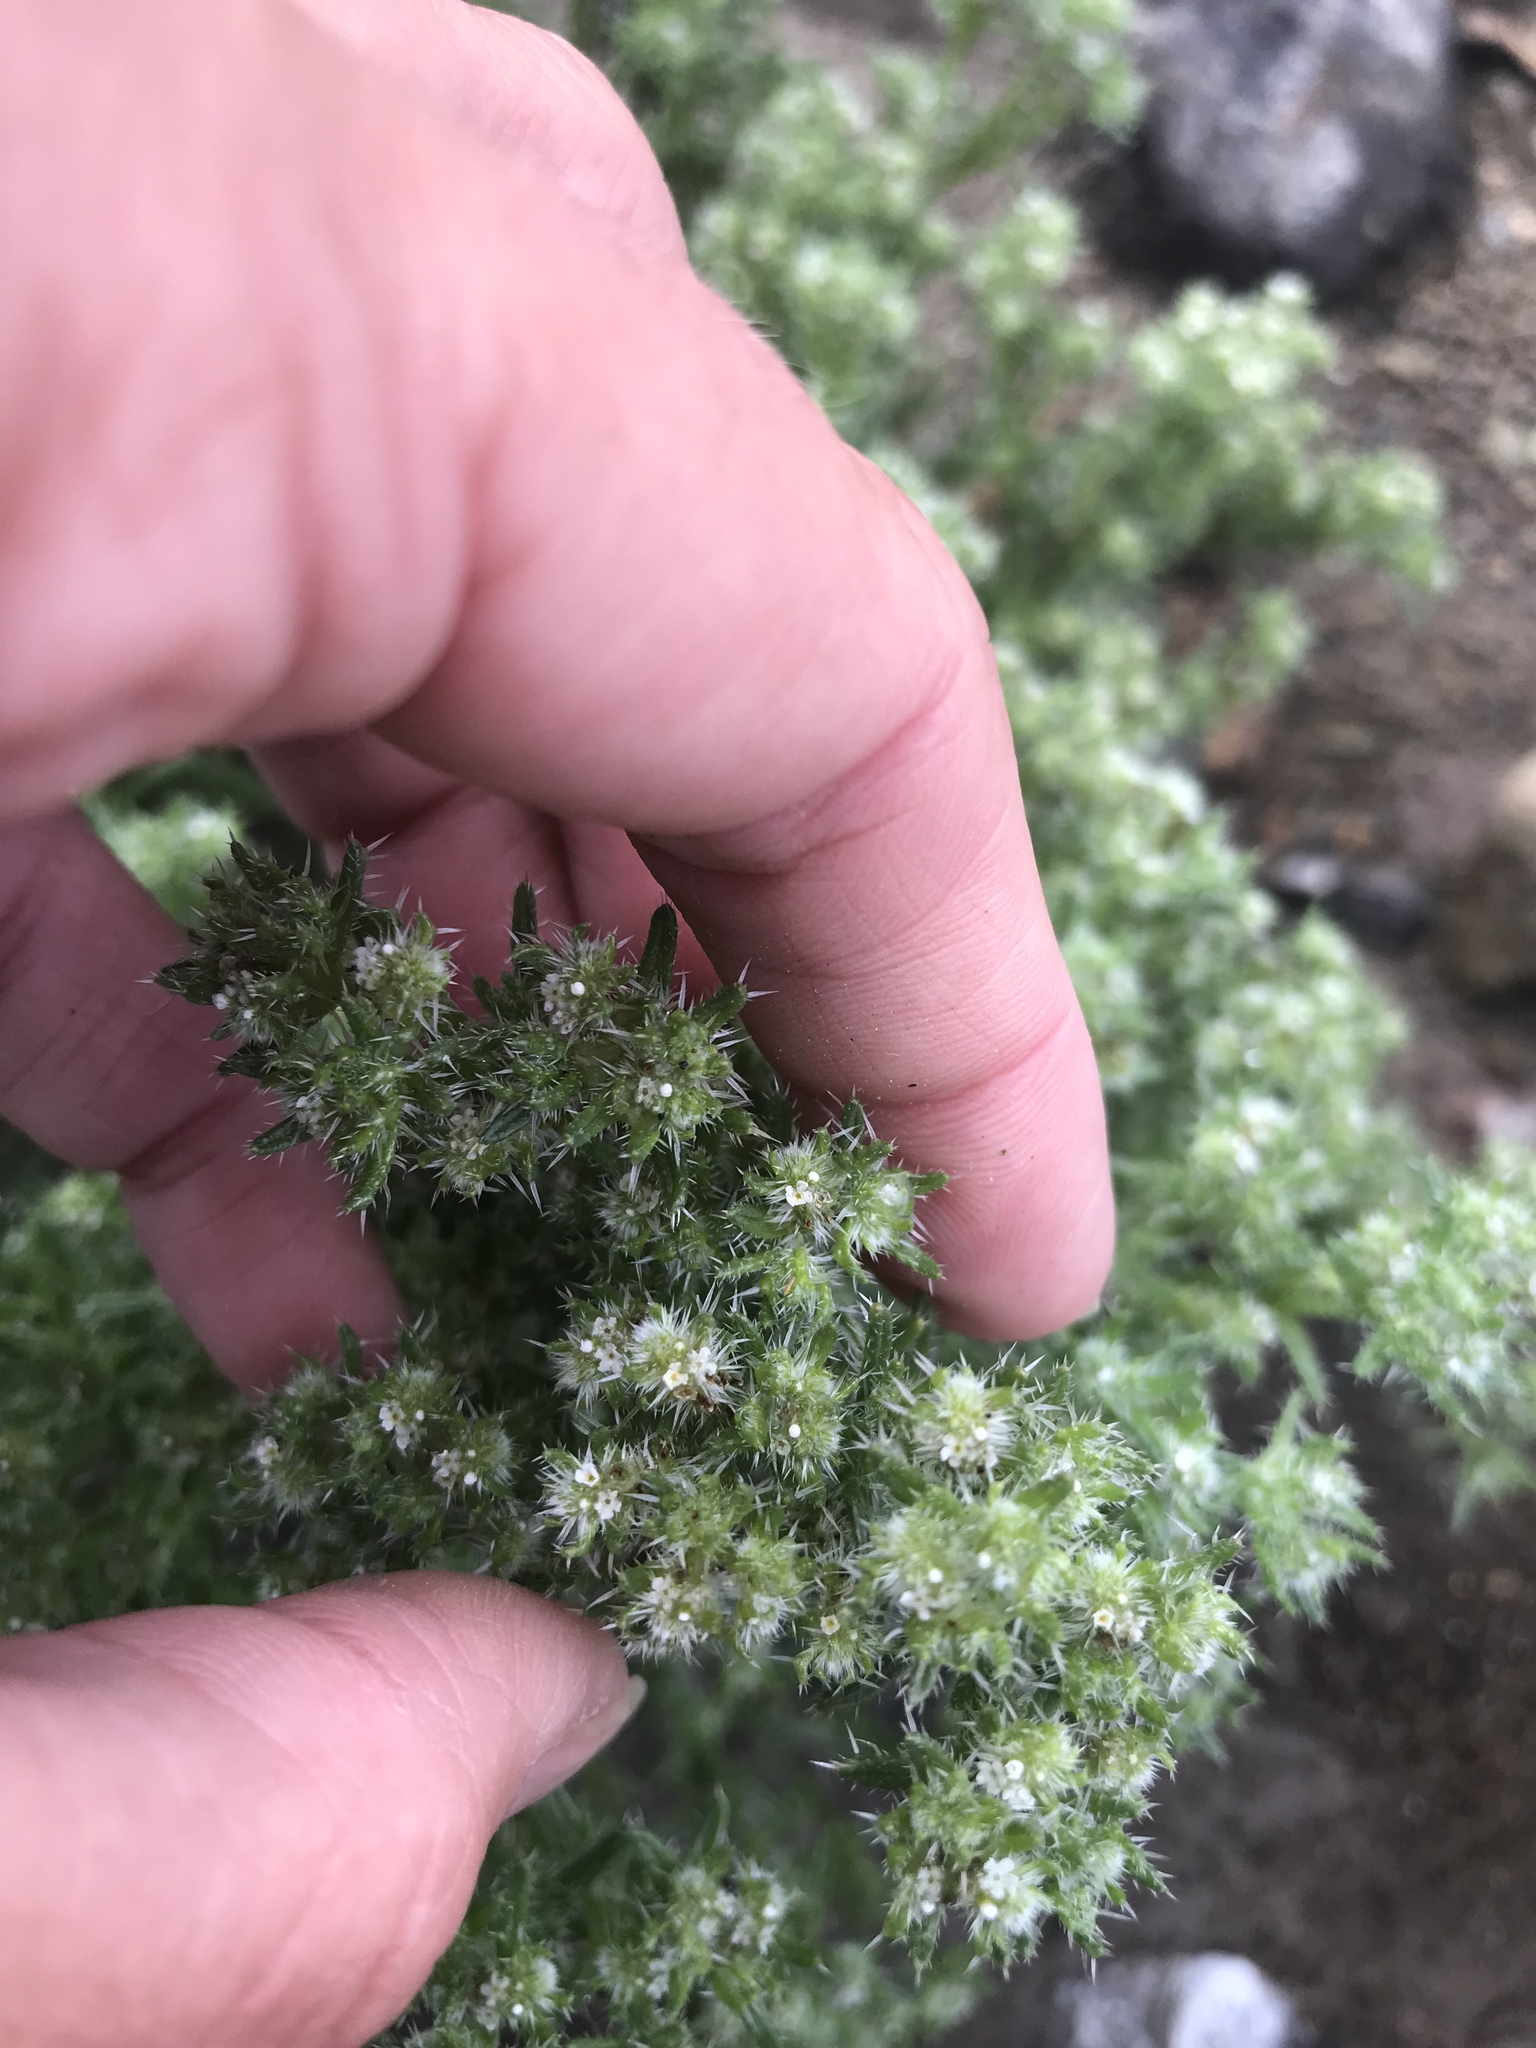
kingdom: Plantae
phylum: Tracheophyta
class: Magnoliopsida
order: Boraginales
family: Boraginaceae
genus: Cryptantha
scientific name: Cryptantha maritima
